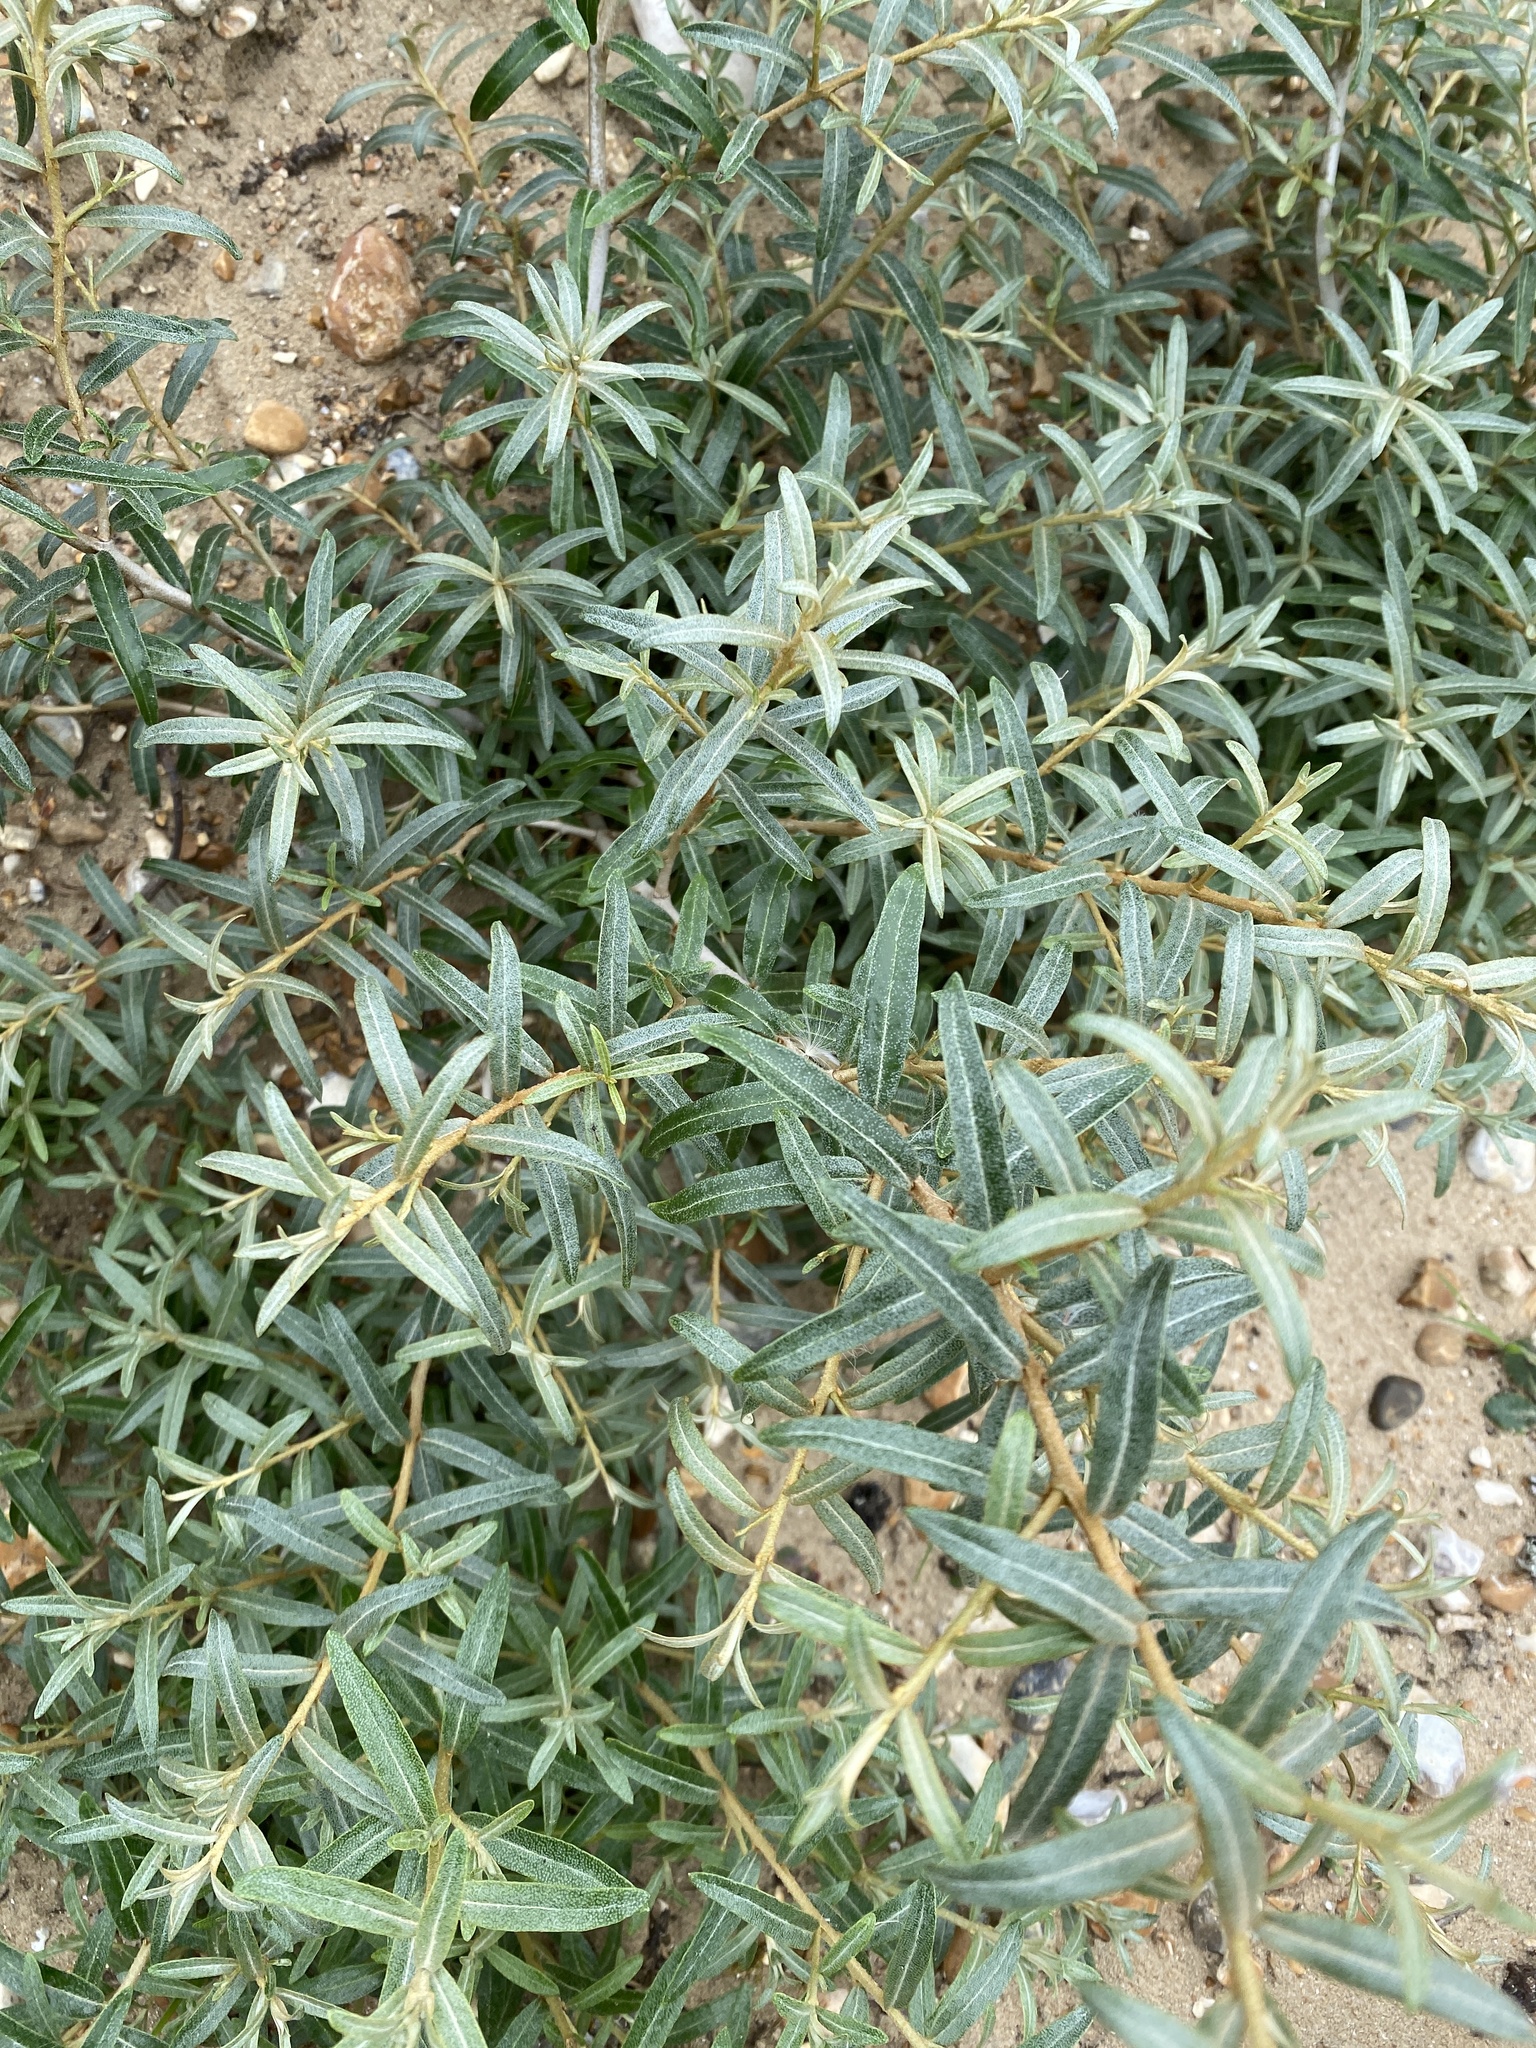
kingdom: Plantae
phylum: Tracheophyta
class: Magnoliopsida
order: Rosales
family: Elaeagnaceae
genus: Hippophae
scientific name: Hippophae rhamnoides
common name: Sea-buckthorn
